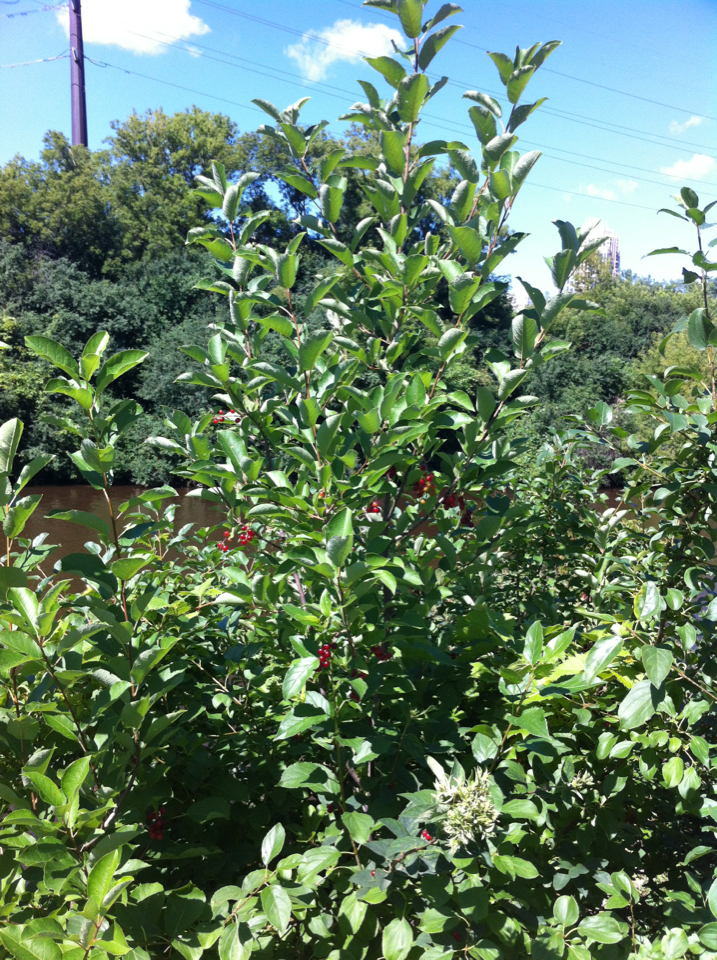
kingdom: Plantae
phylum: Tracheophyta
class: Magnoliopsida
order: Rosales
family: Rosaceae
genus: Prunus
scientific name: Prunus virginiana
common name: Chokecherry
